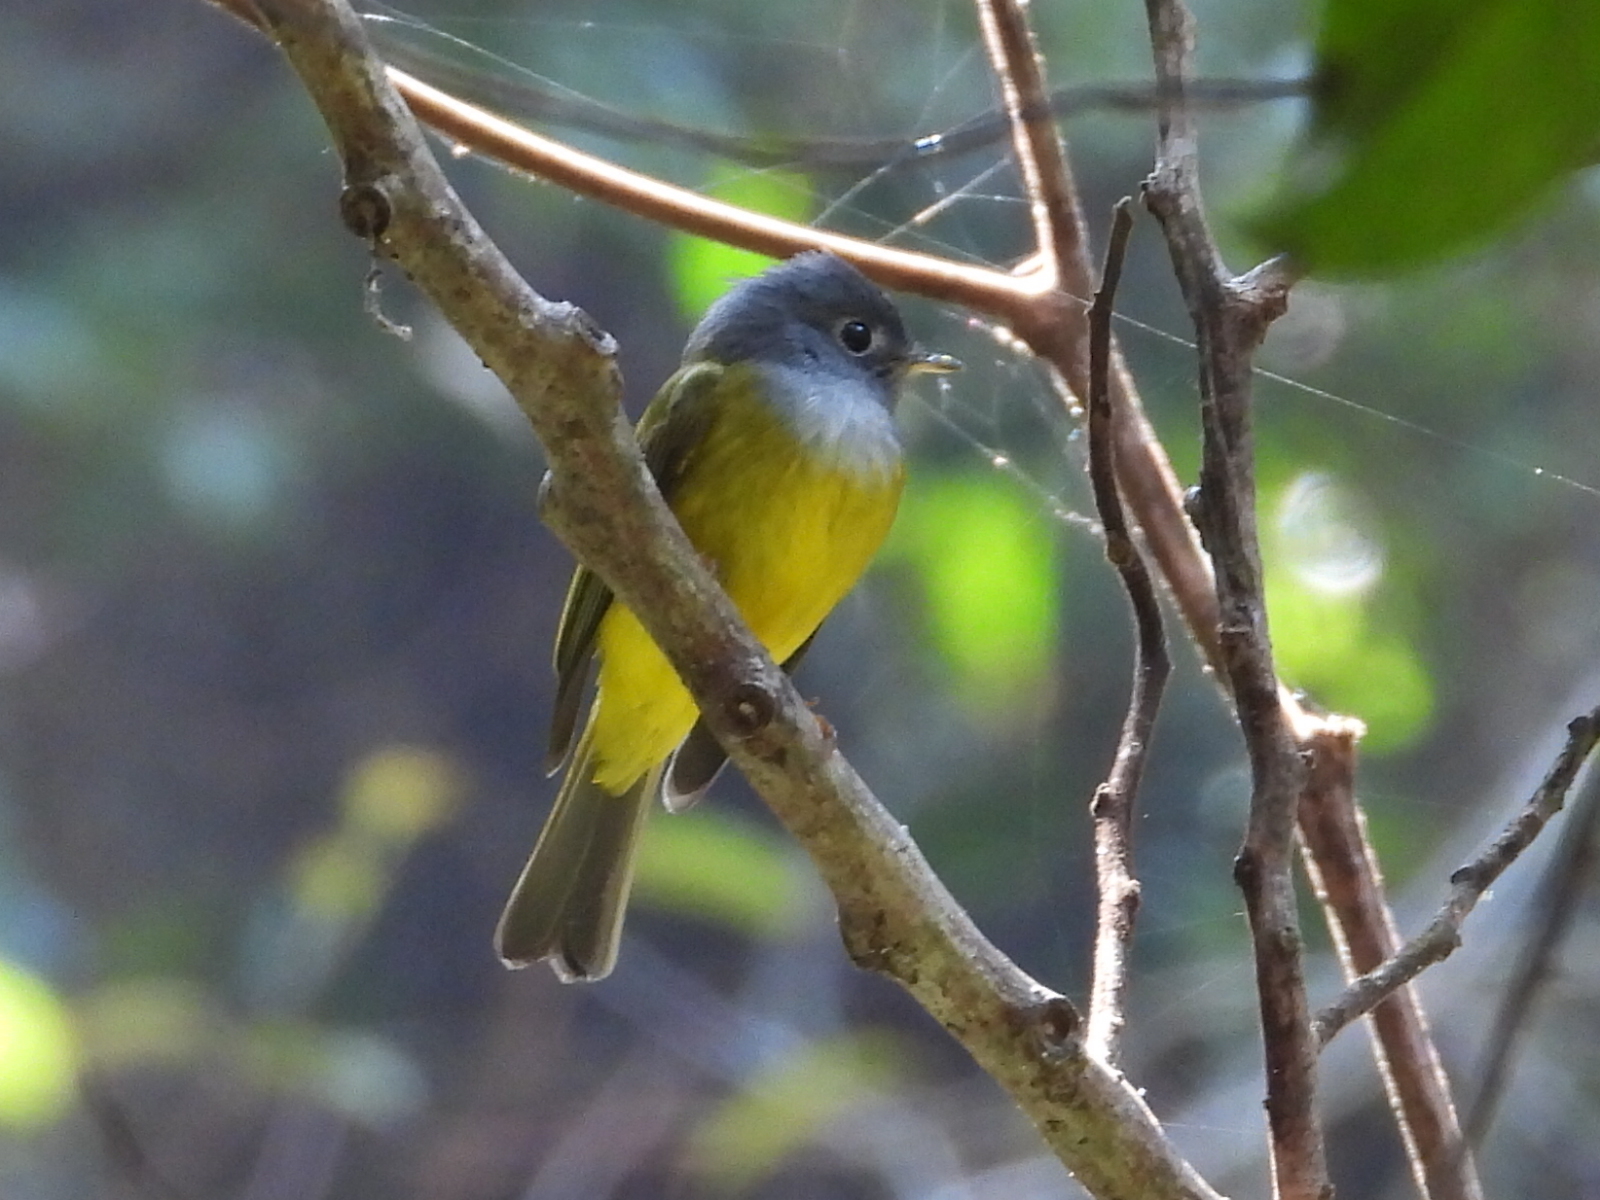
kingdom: Animalia
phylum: Chordata
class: Aves
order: Passeriformes
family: Stenostiridae
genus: Culicicapa
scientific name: Culicicapa ceylonensis
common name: Grey-headed canary-flycatcher
